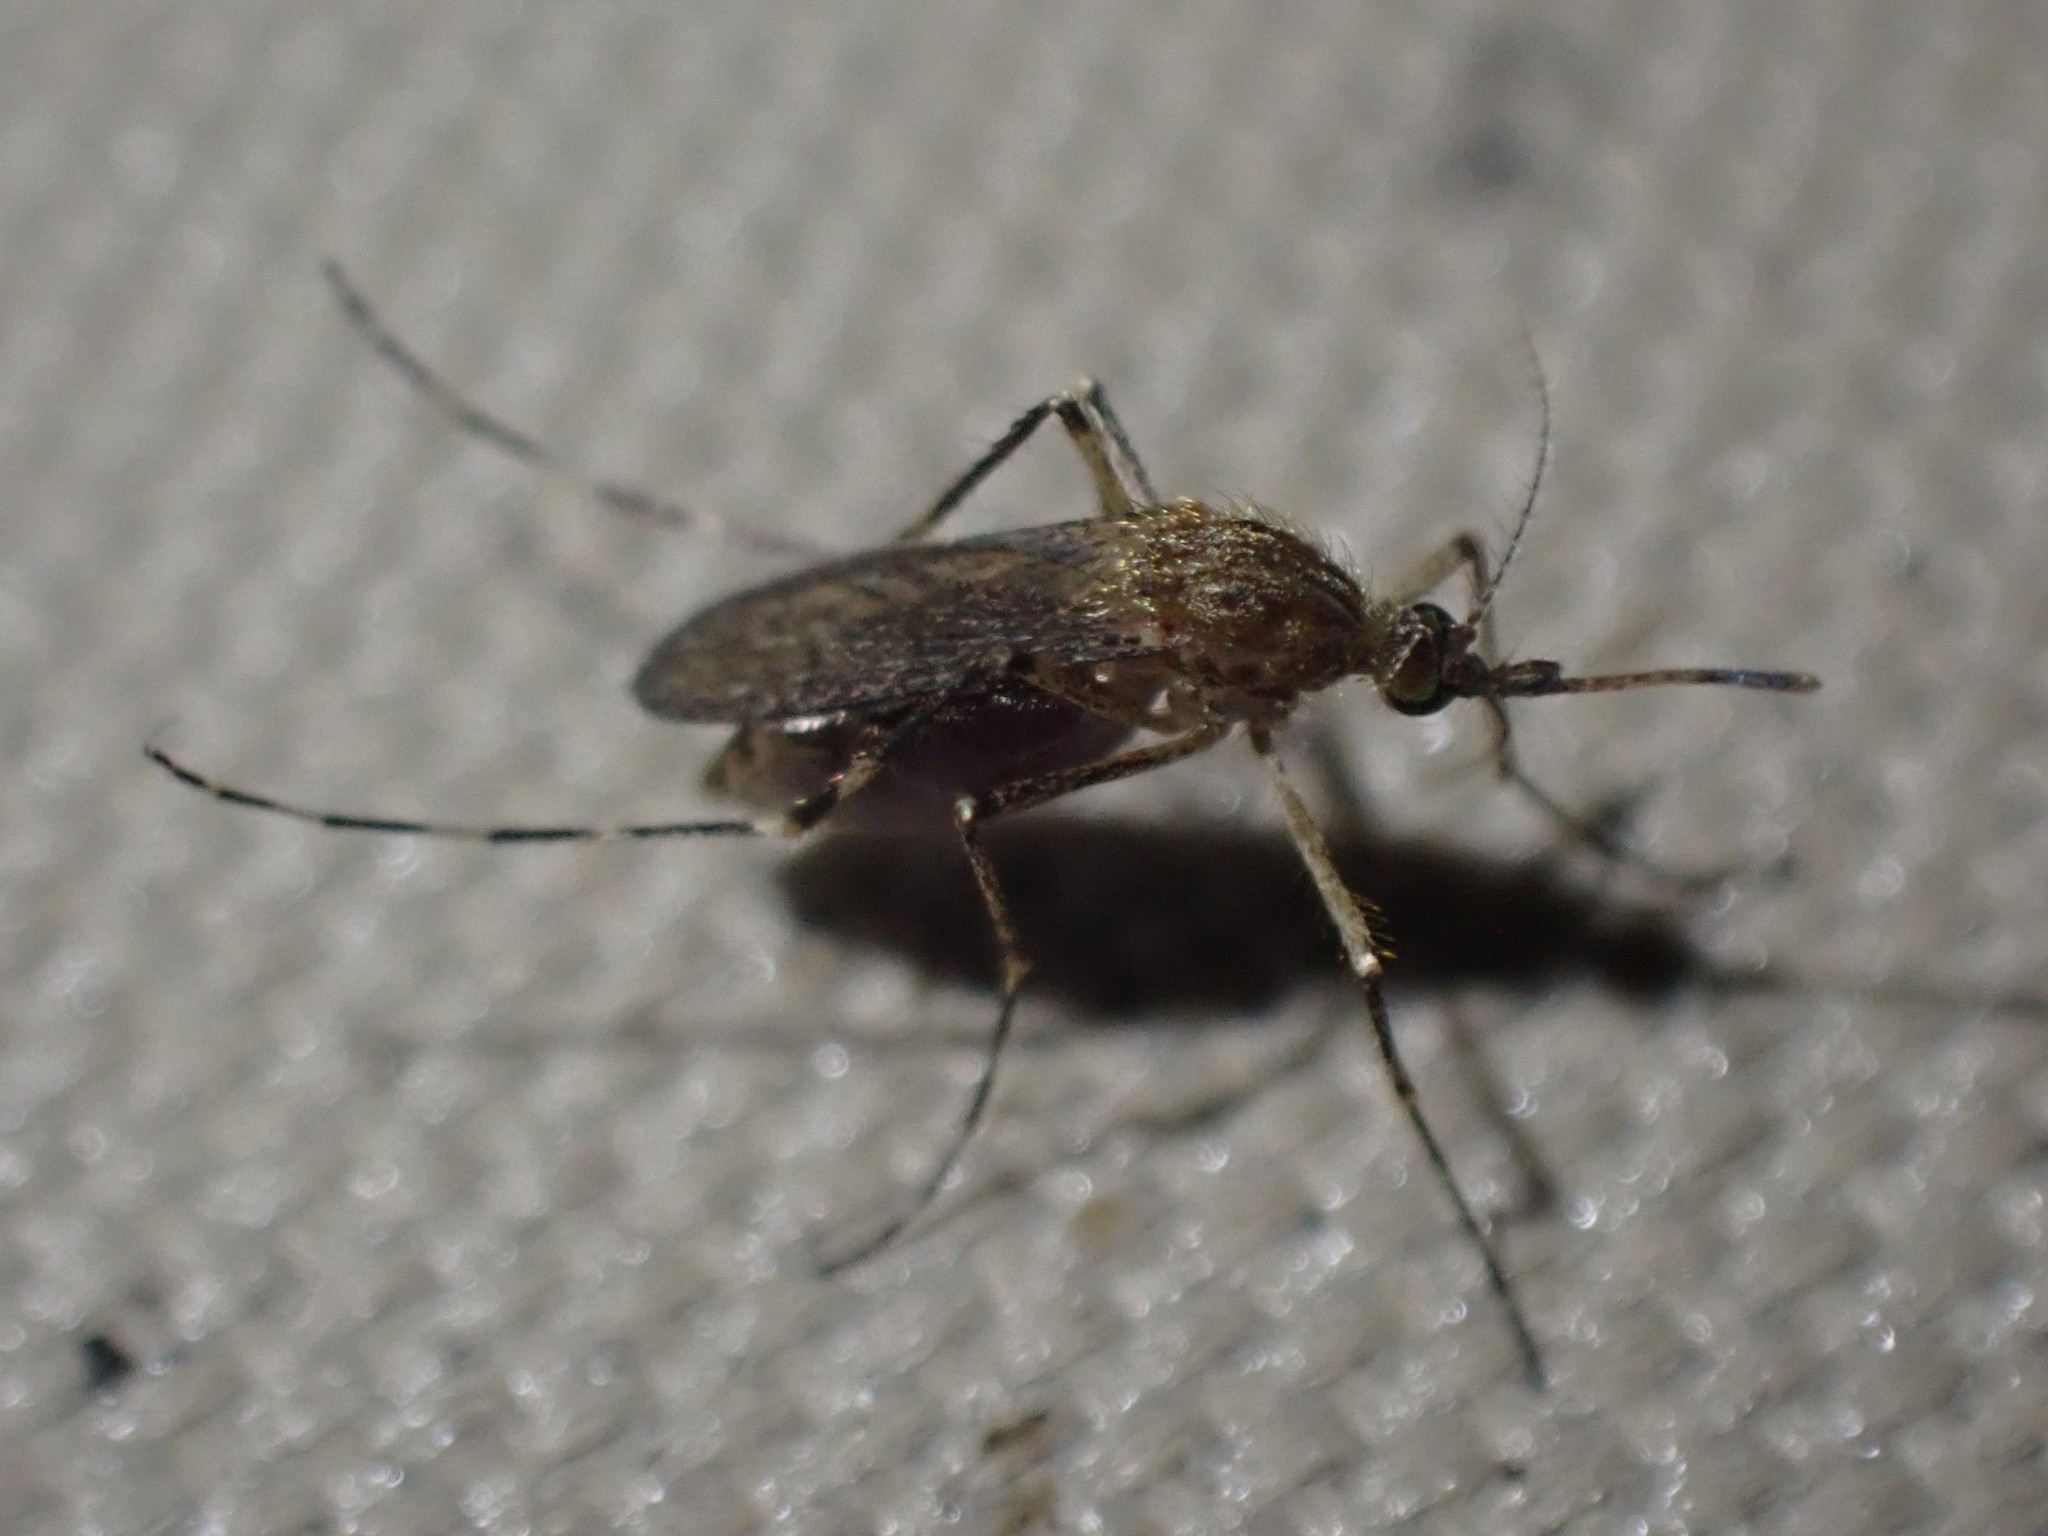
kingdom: Animalia
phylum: Arthropoda
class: Insecta
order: Diptera
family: Culicidae
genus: Coquillettidia
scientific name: Coquillettidia perturbans
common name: Cattail mosquito
